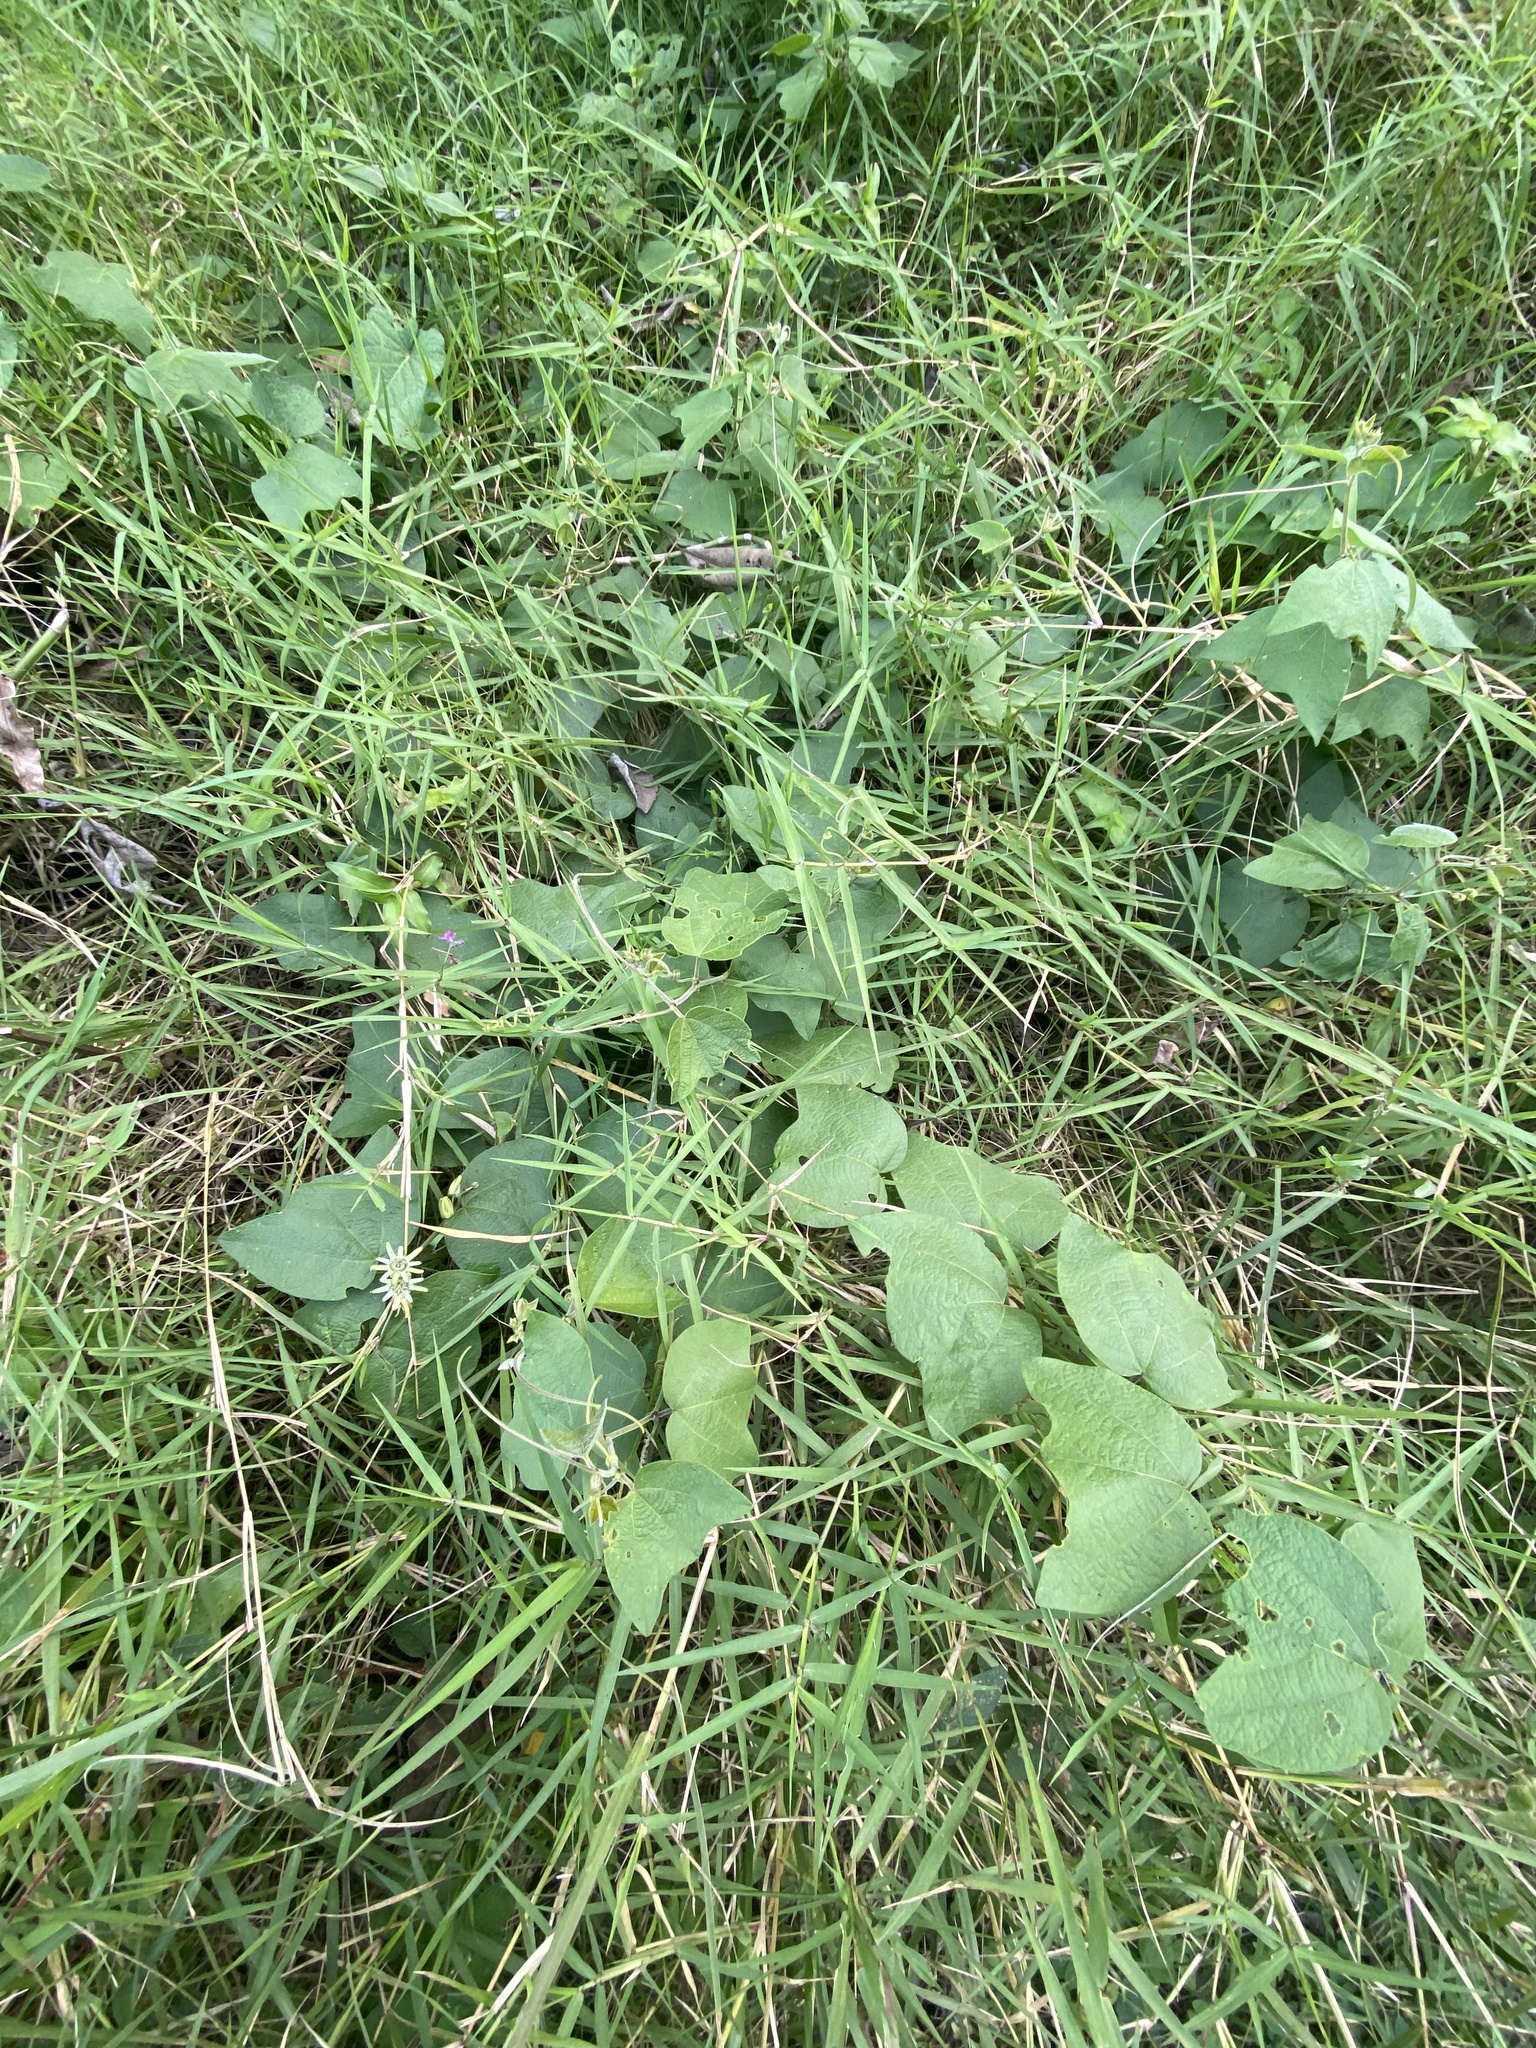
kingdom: Plantae
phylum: Tracheophyta
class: Magnoliopsida
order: Malpighiales
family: Passifloraceae
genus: Passiflora
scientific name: Passiflora sexflora
